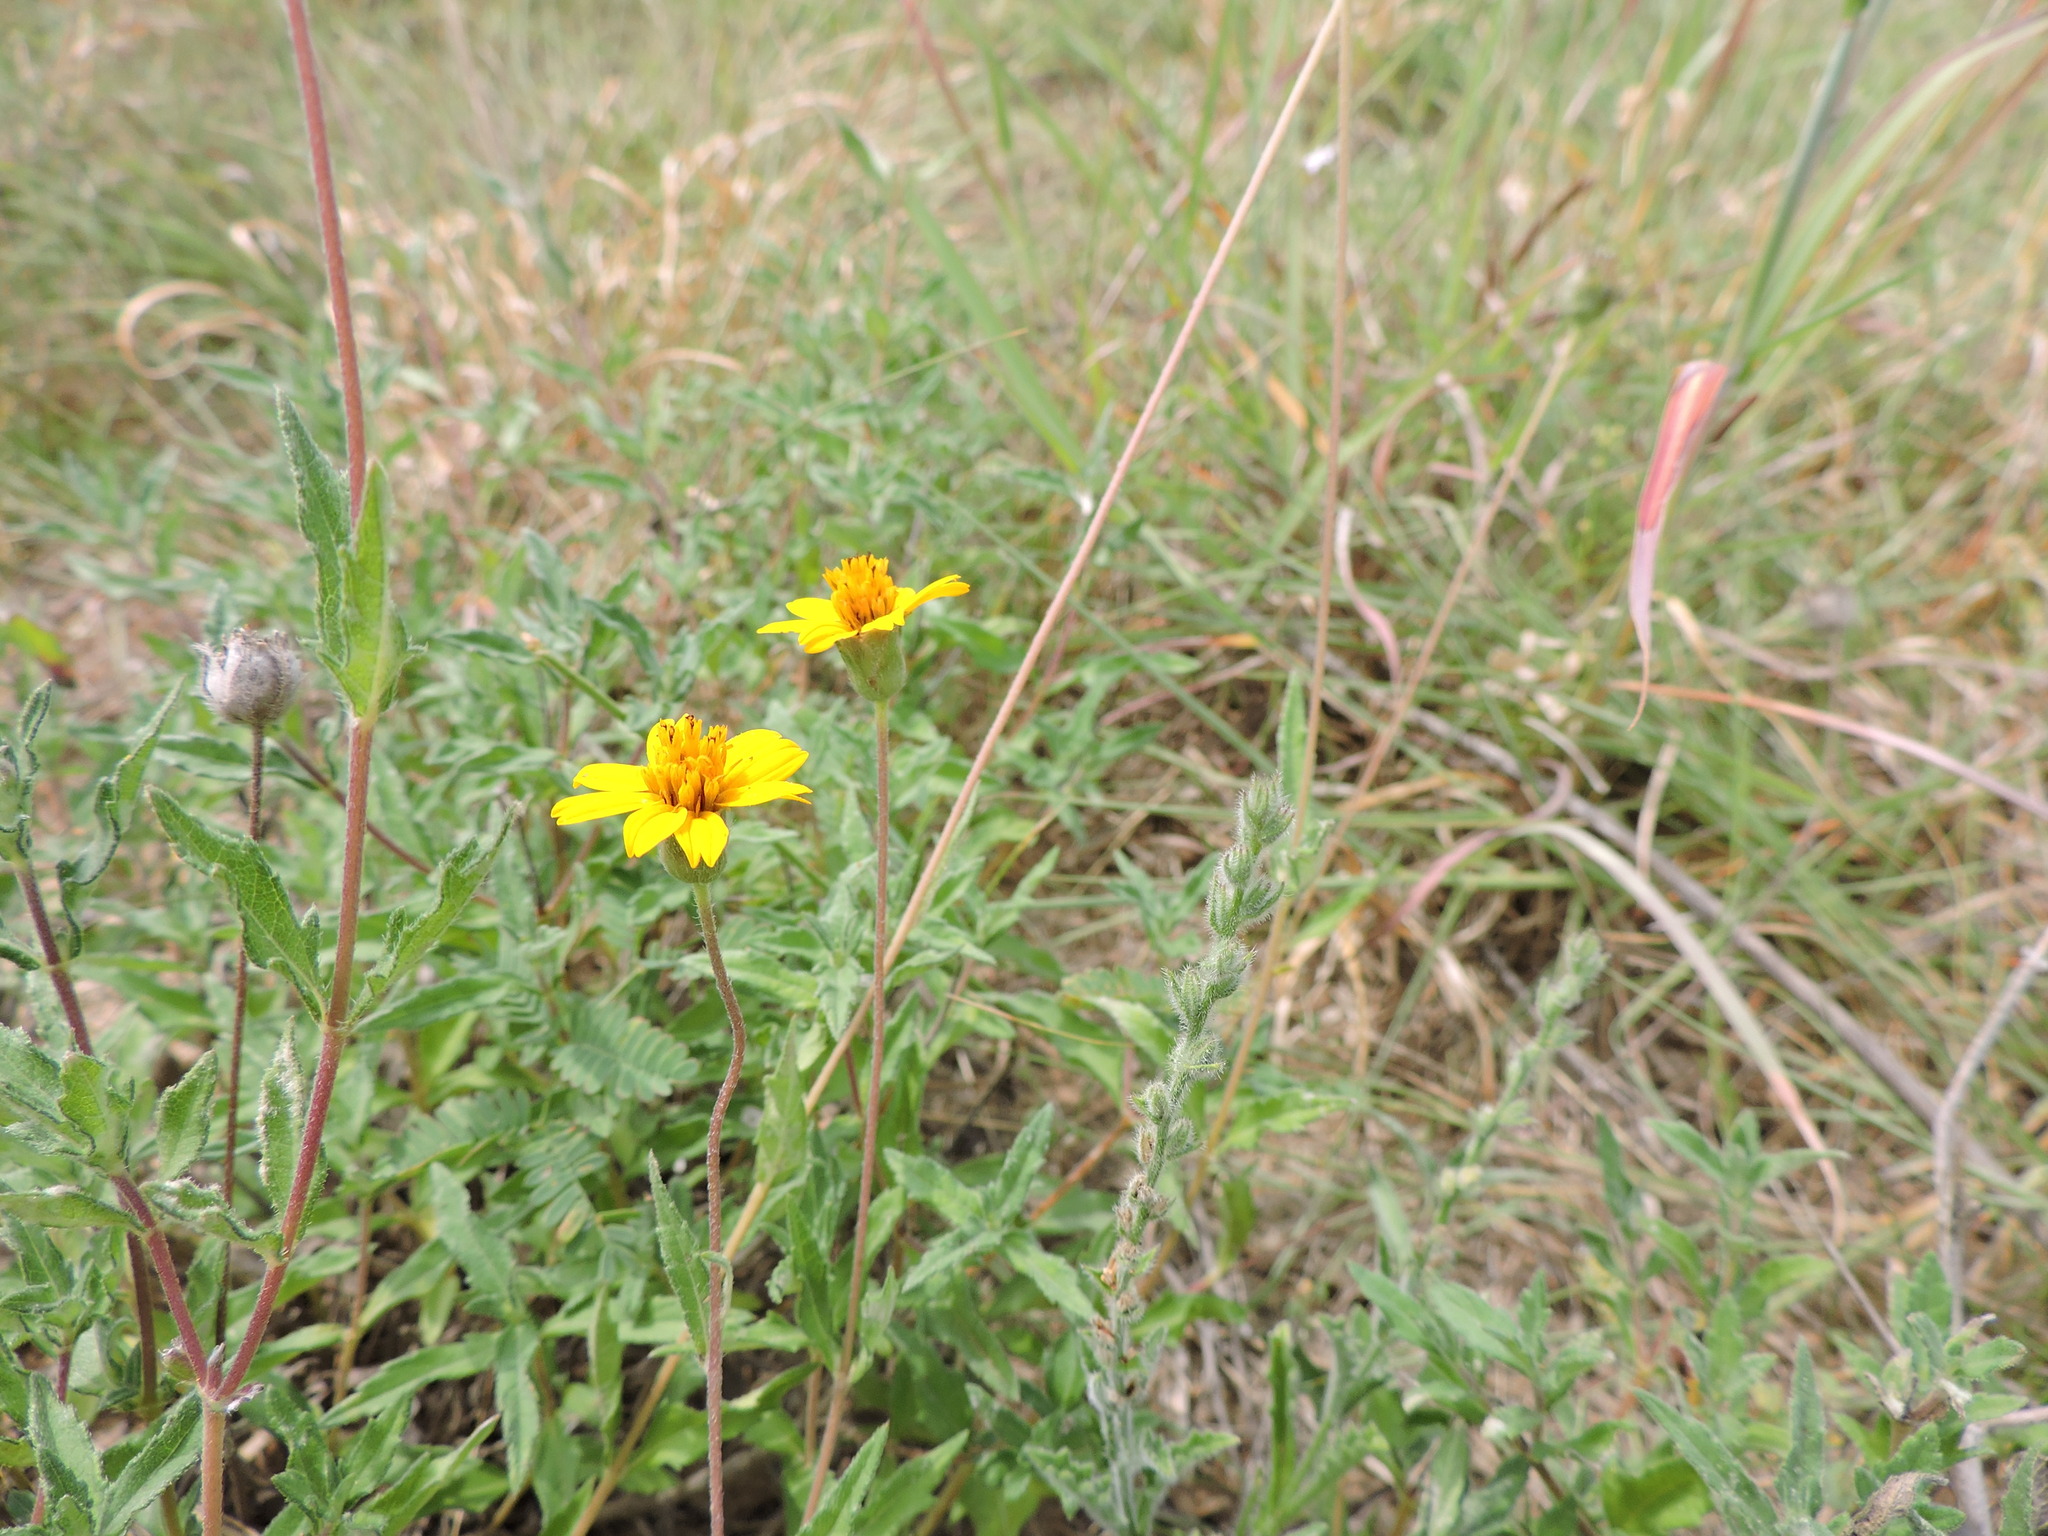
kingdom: Plantae
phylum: Tracheophyta
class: Magnoliopsida
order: Asterales
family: Asteraceae
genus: Wedelia
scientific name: Wedelia acapulcensis
